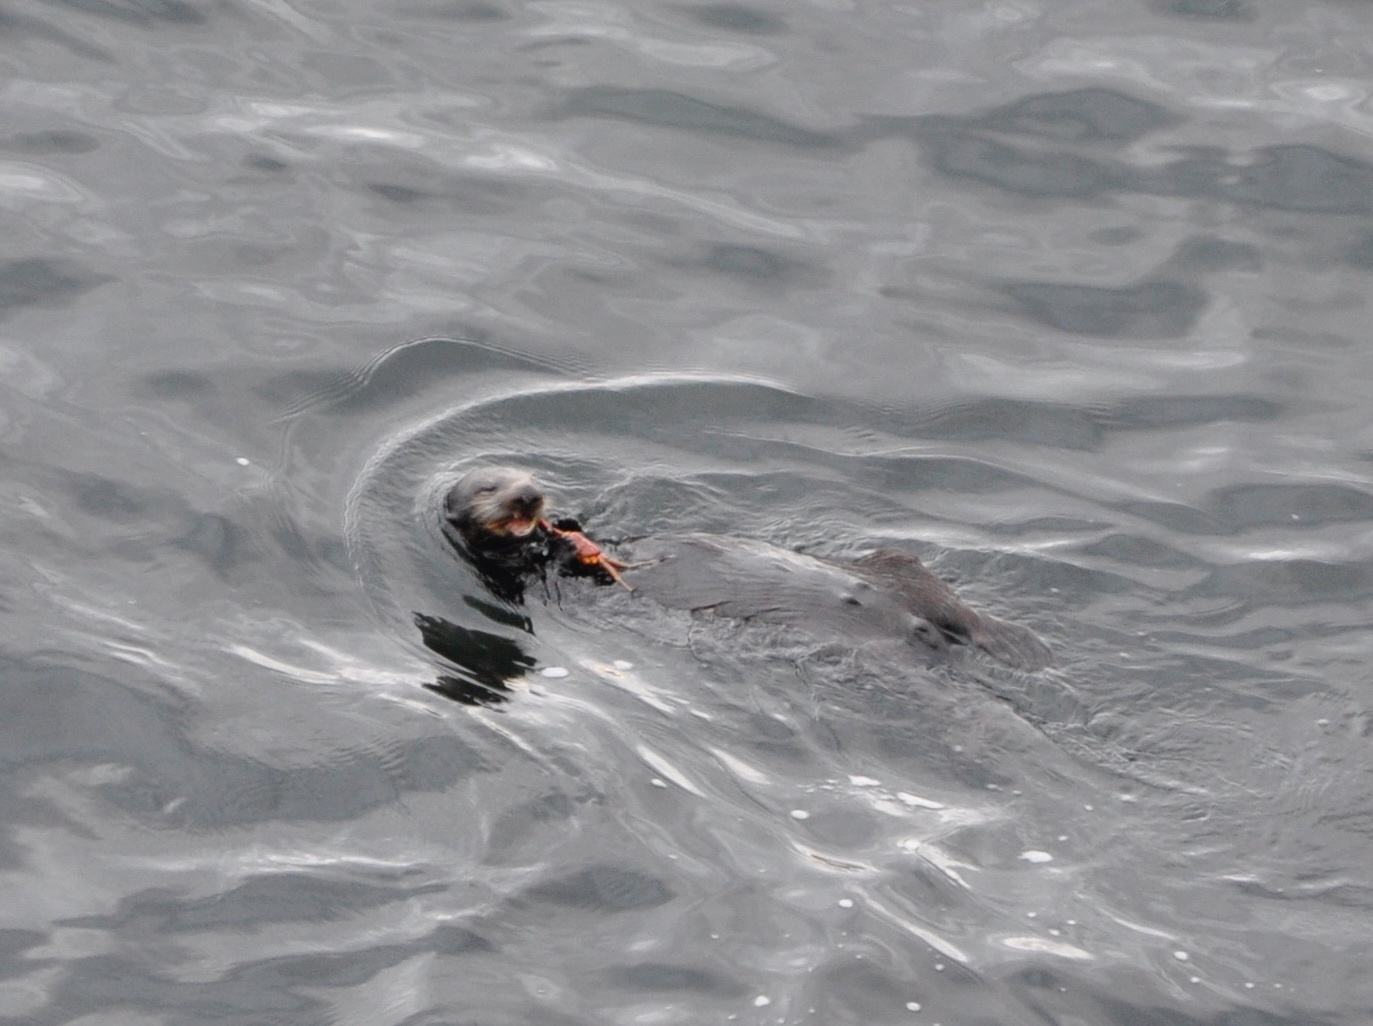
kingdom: Animalia
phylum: Chordata
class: Mammalia
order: Carnivora
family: Mustelidae
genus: Enhydra
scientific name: Enhydra lutris
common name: Sea otter
